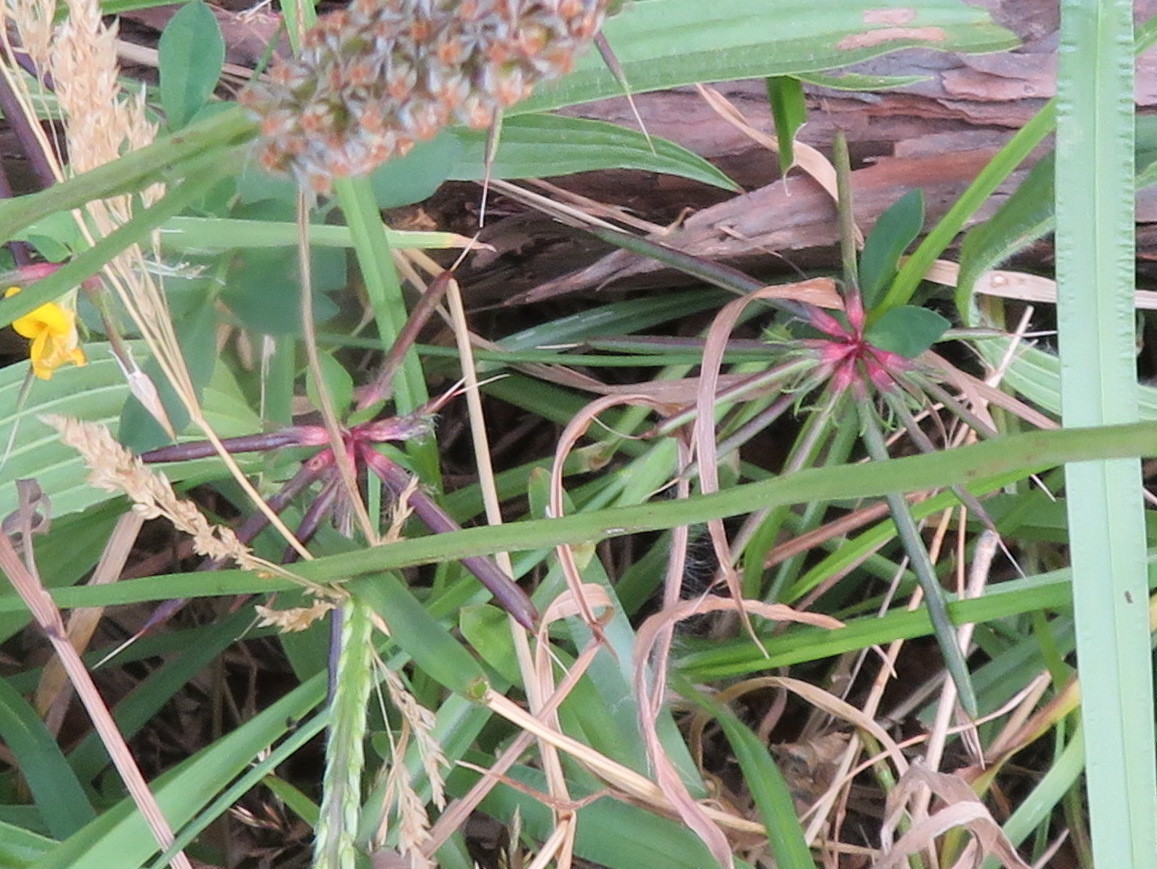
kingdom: Plantae
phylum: Tracheophyta
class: Magnoliopsida
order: Fabales
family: Fabaceae
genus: Lotus
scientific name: Lotus pedunculatus
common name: Greater birdsfoot-trefoil
